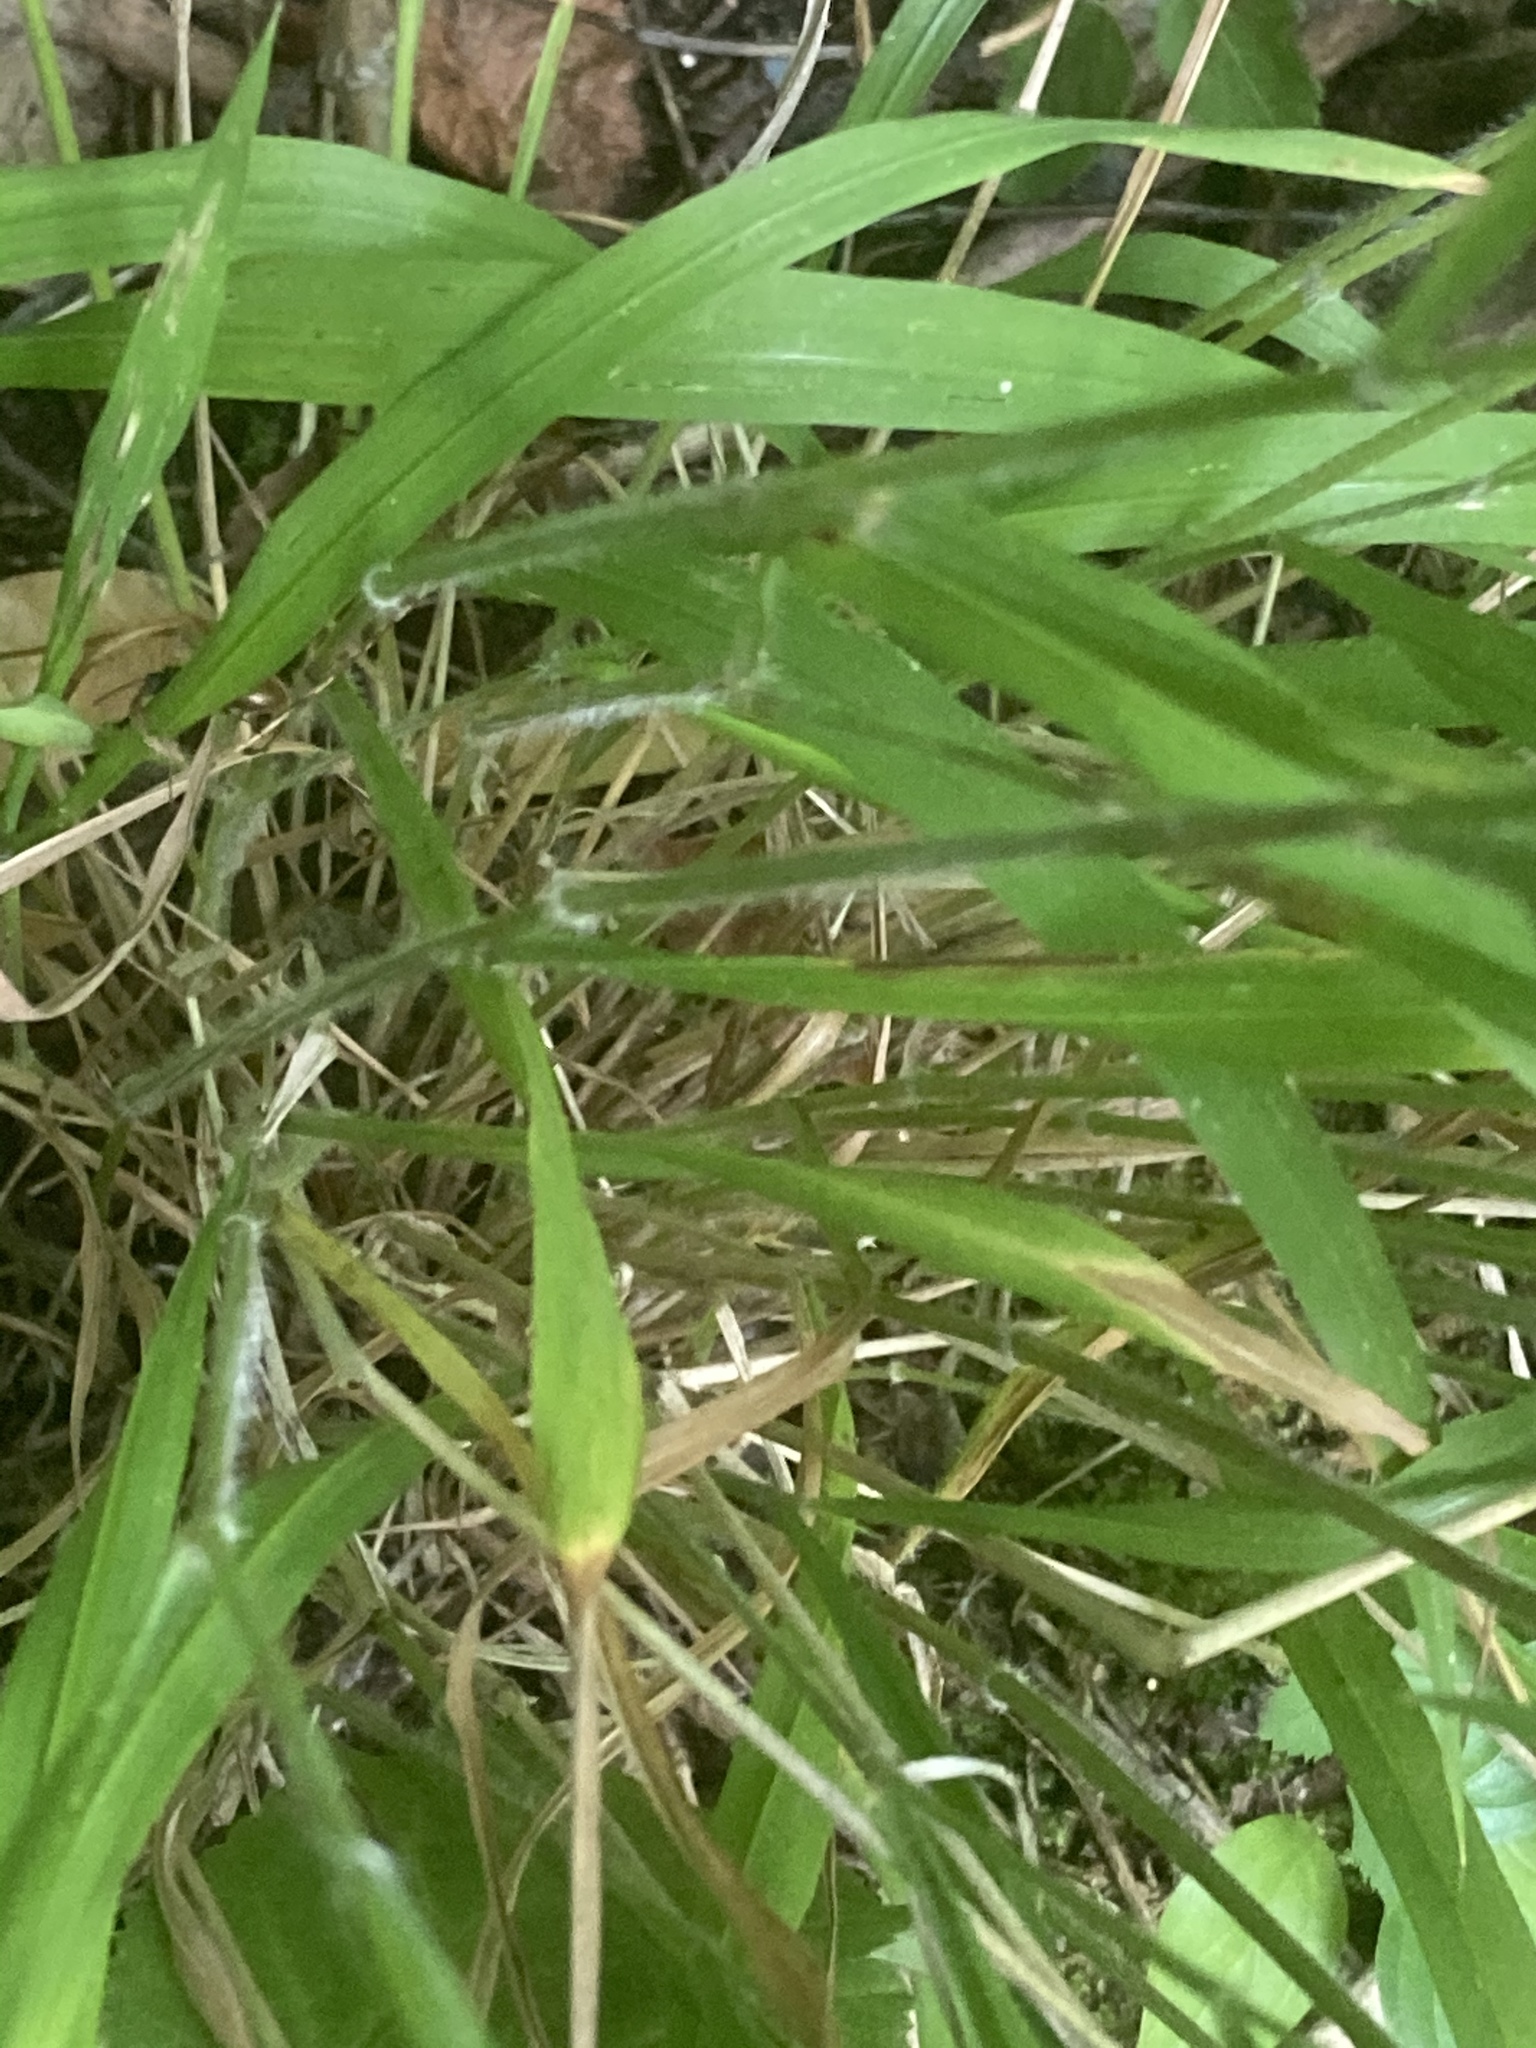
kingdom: Plantae
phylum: Tracheophyta
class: Liliopsida
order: Poales
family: Poaceae
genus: Brachypodium
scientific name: Brachypodium sylvaticum
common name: False-brome
